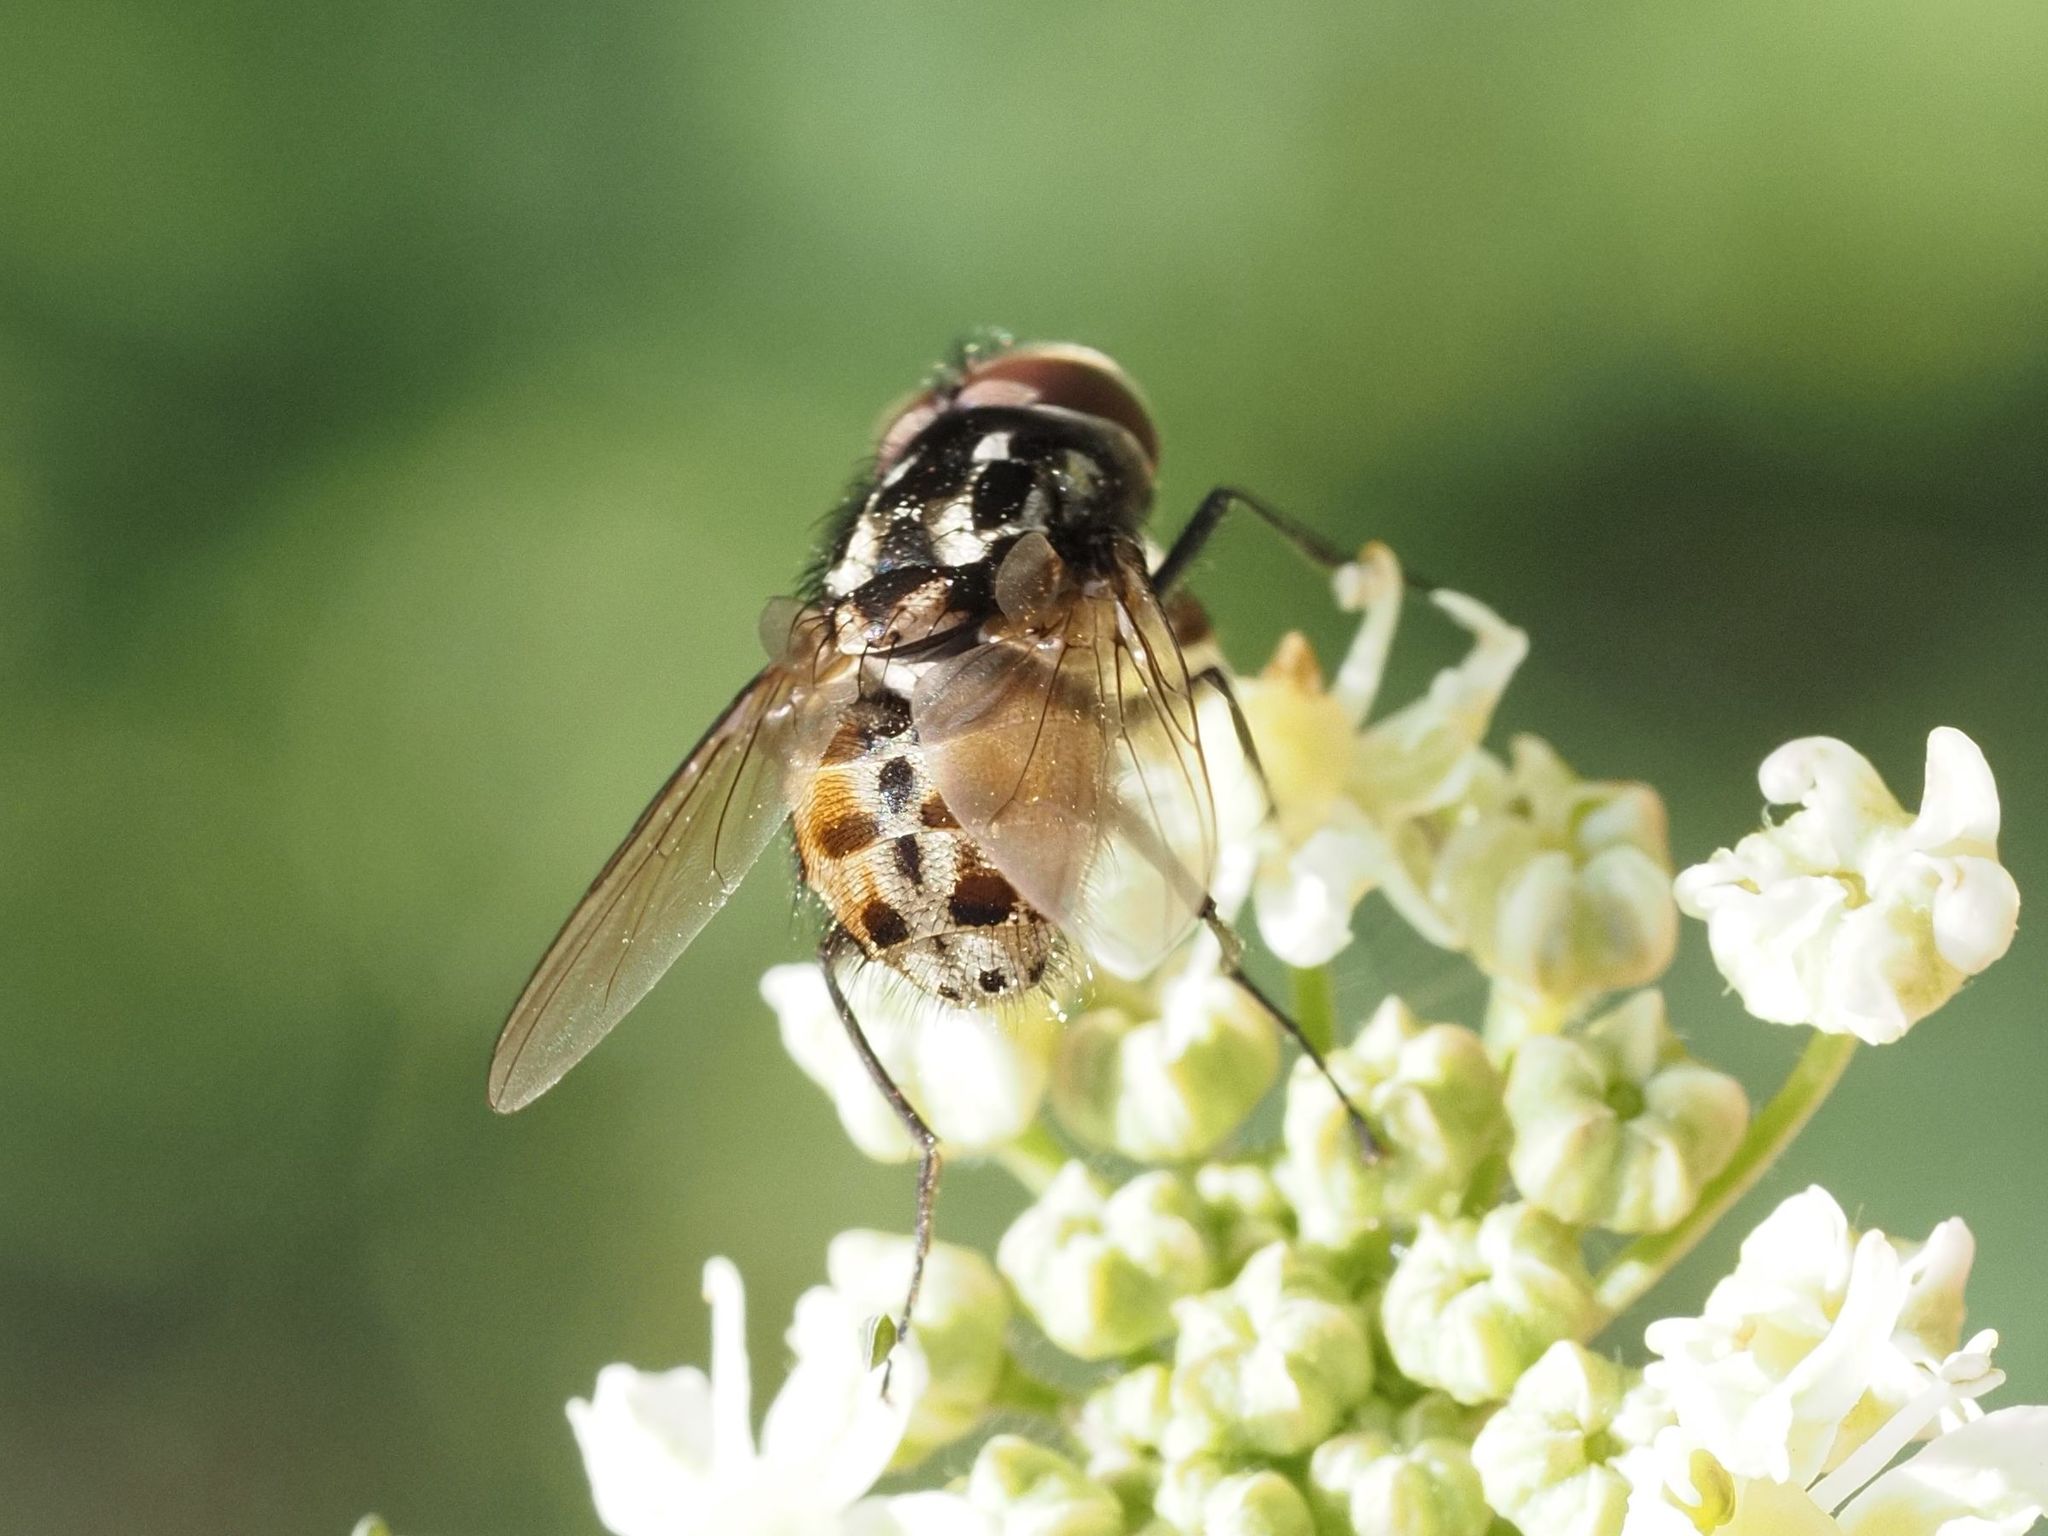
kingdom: Animalia
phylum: Arthropoda
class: Insecta
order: Diptera
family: Muscidae
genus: Graphomya
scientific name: Graphomya maculata
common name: Muscid fly
